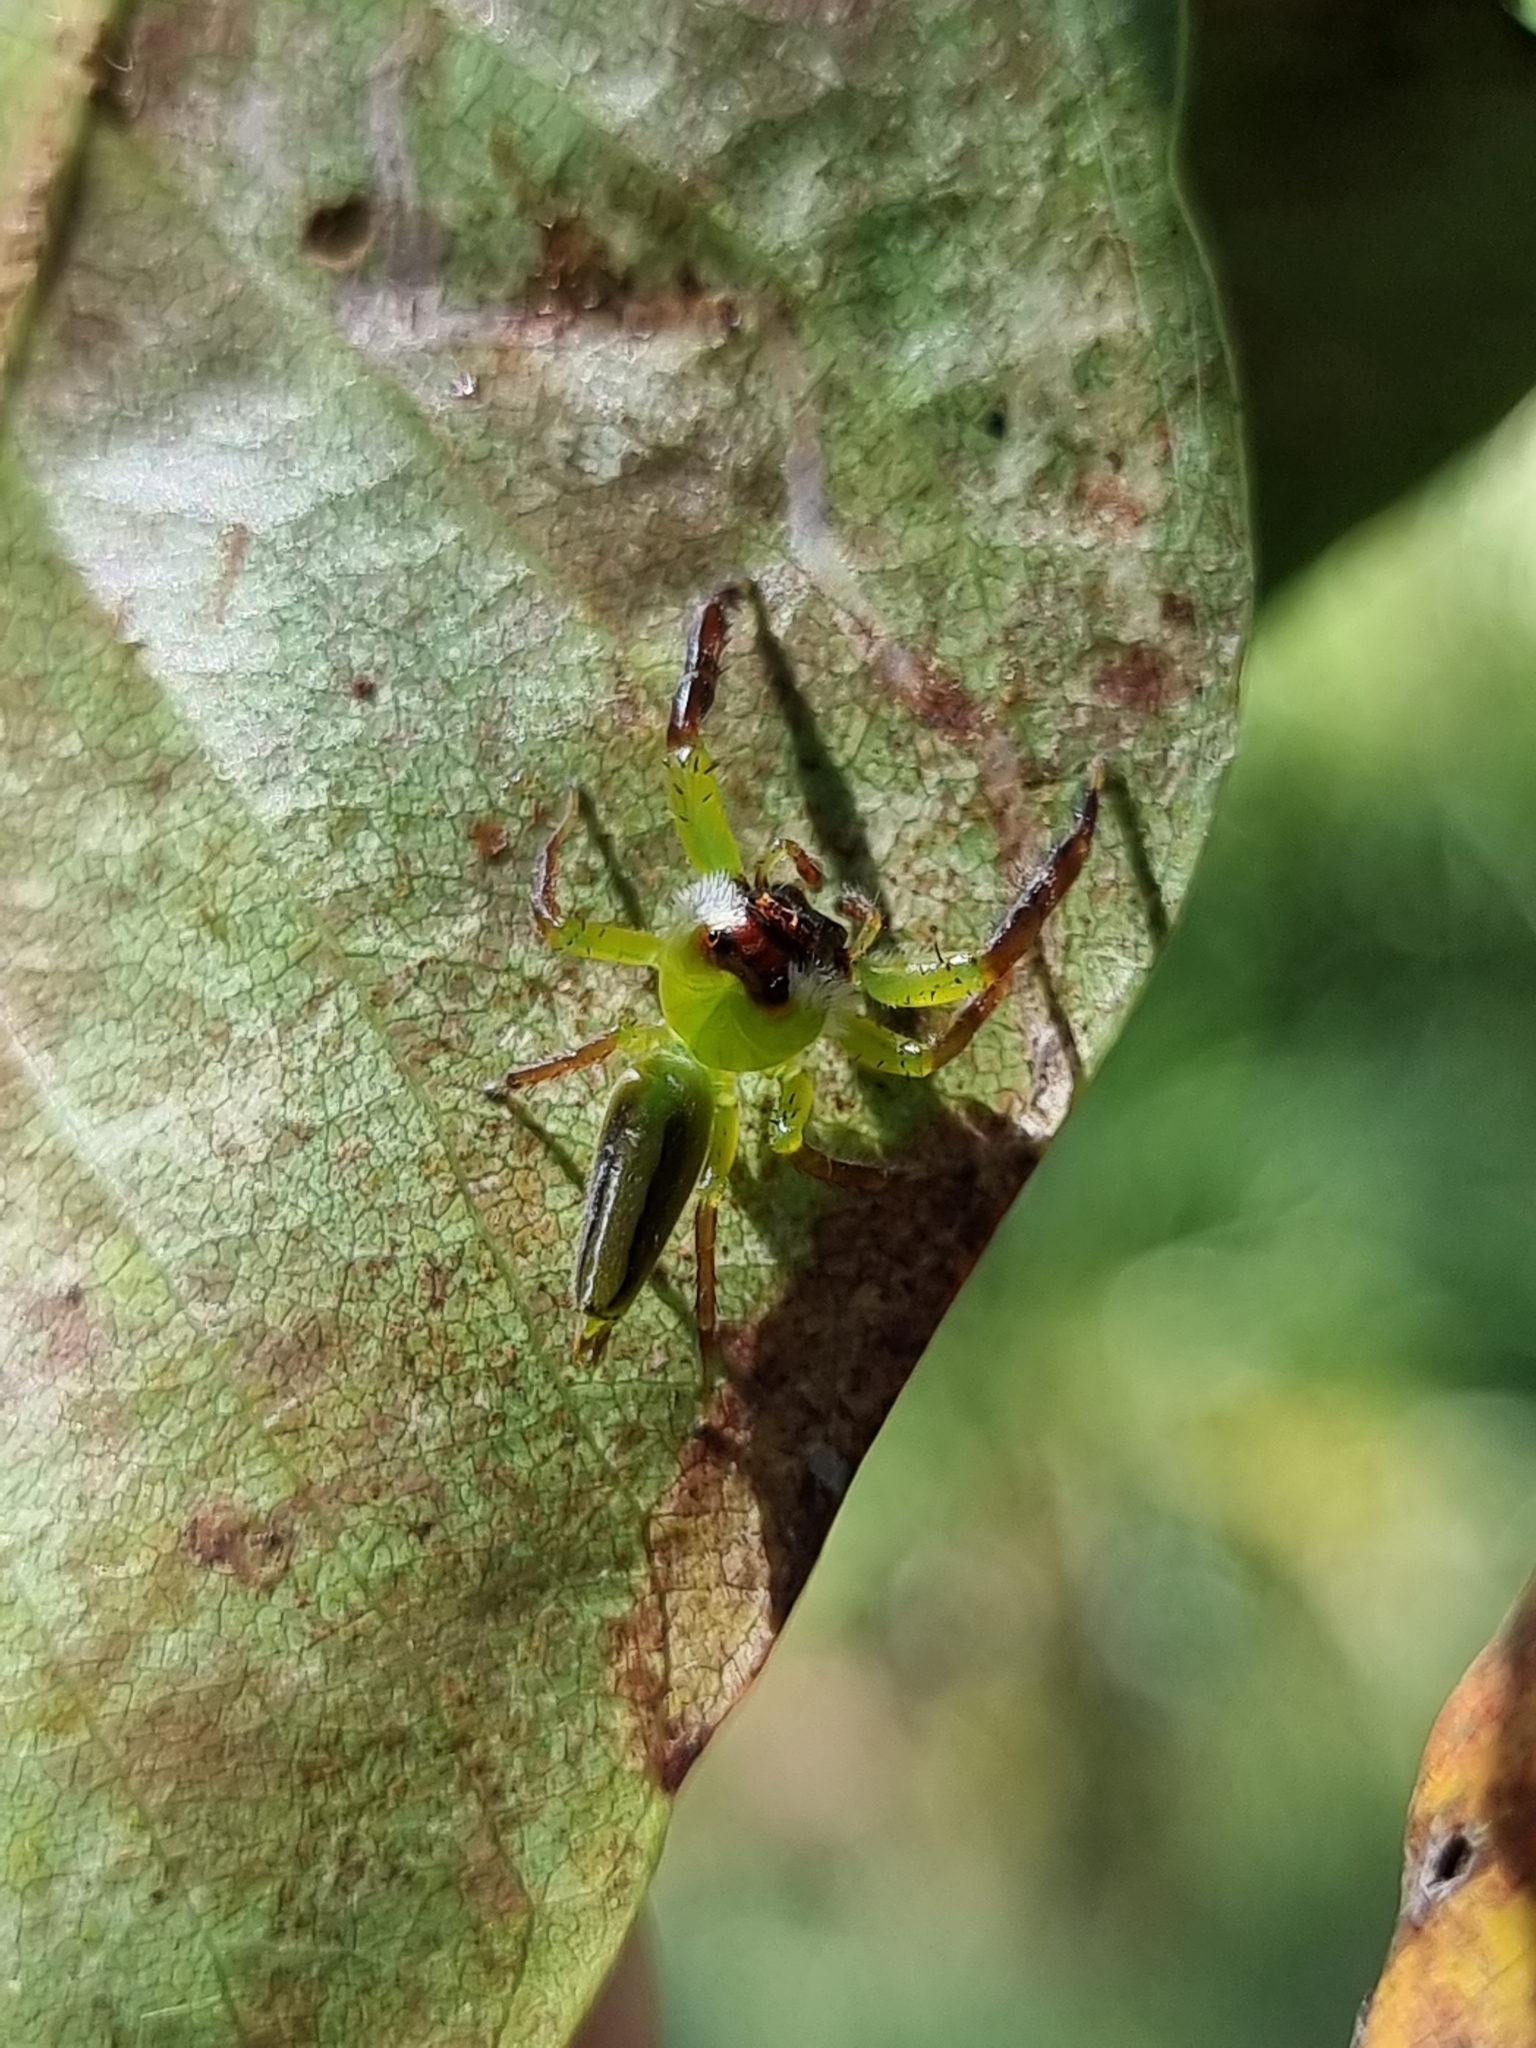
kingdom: Animalia
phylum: Arthropoda
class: Arachnida
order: Araneae
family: Salticidae
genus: Mopsus
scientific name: Mopsus mormon
